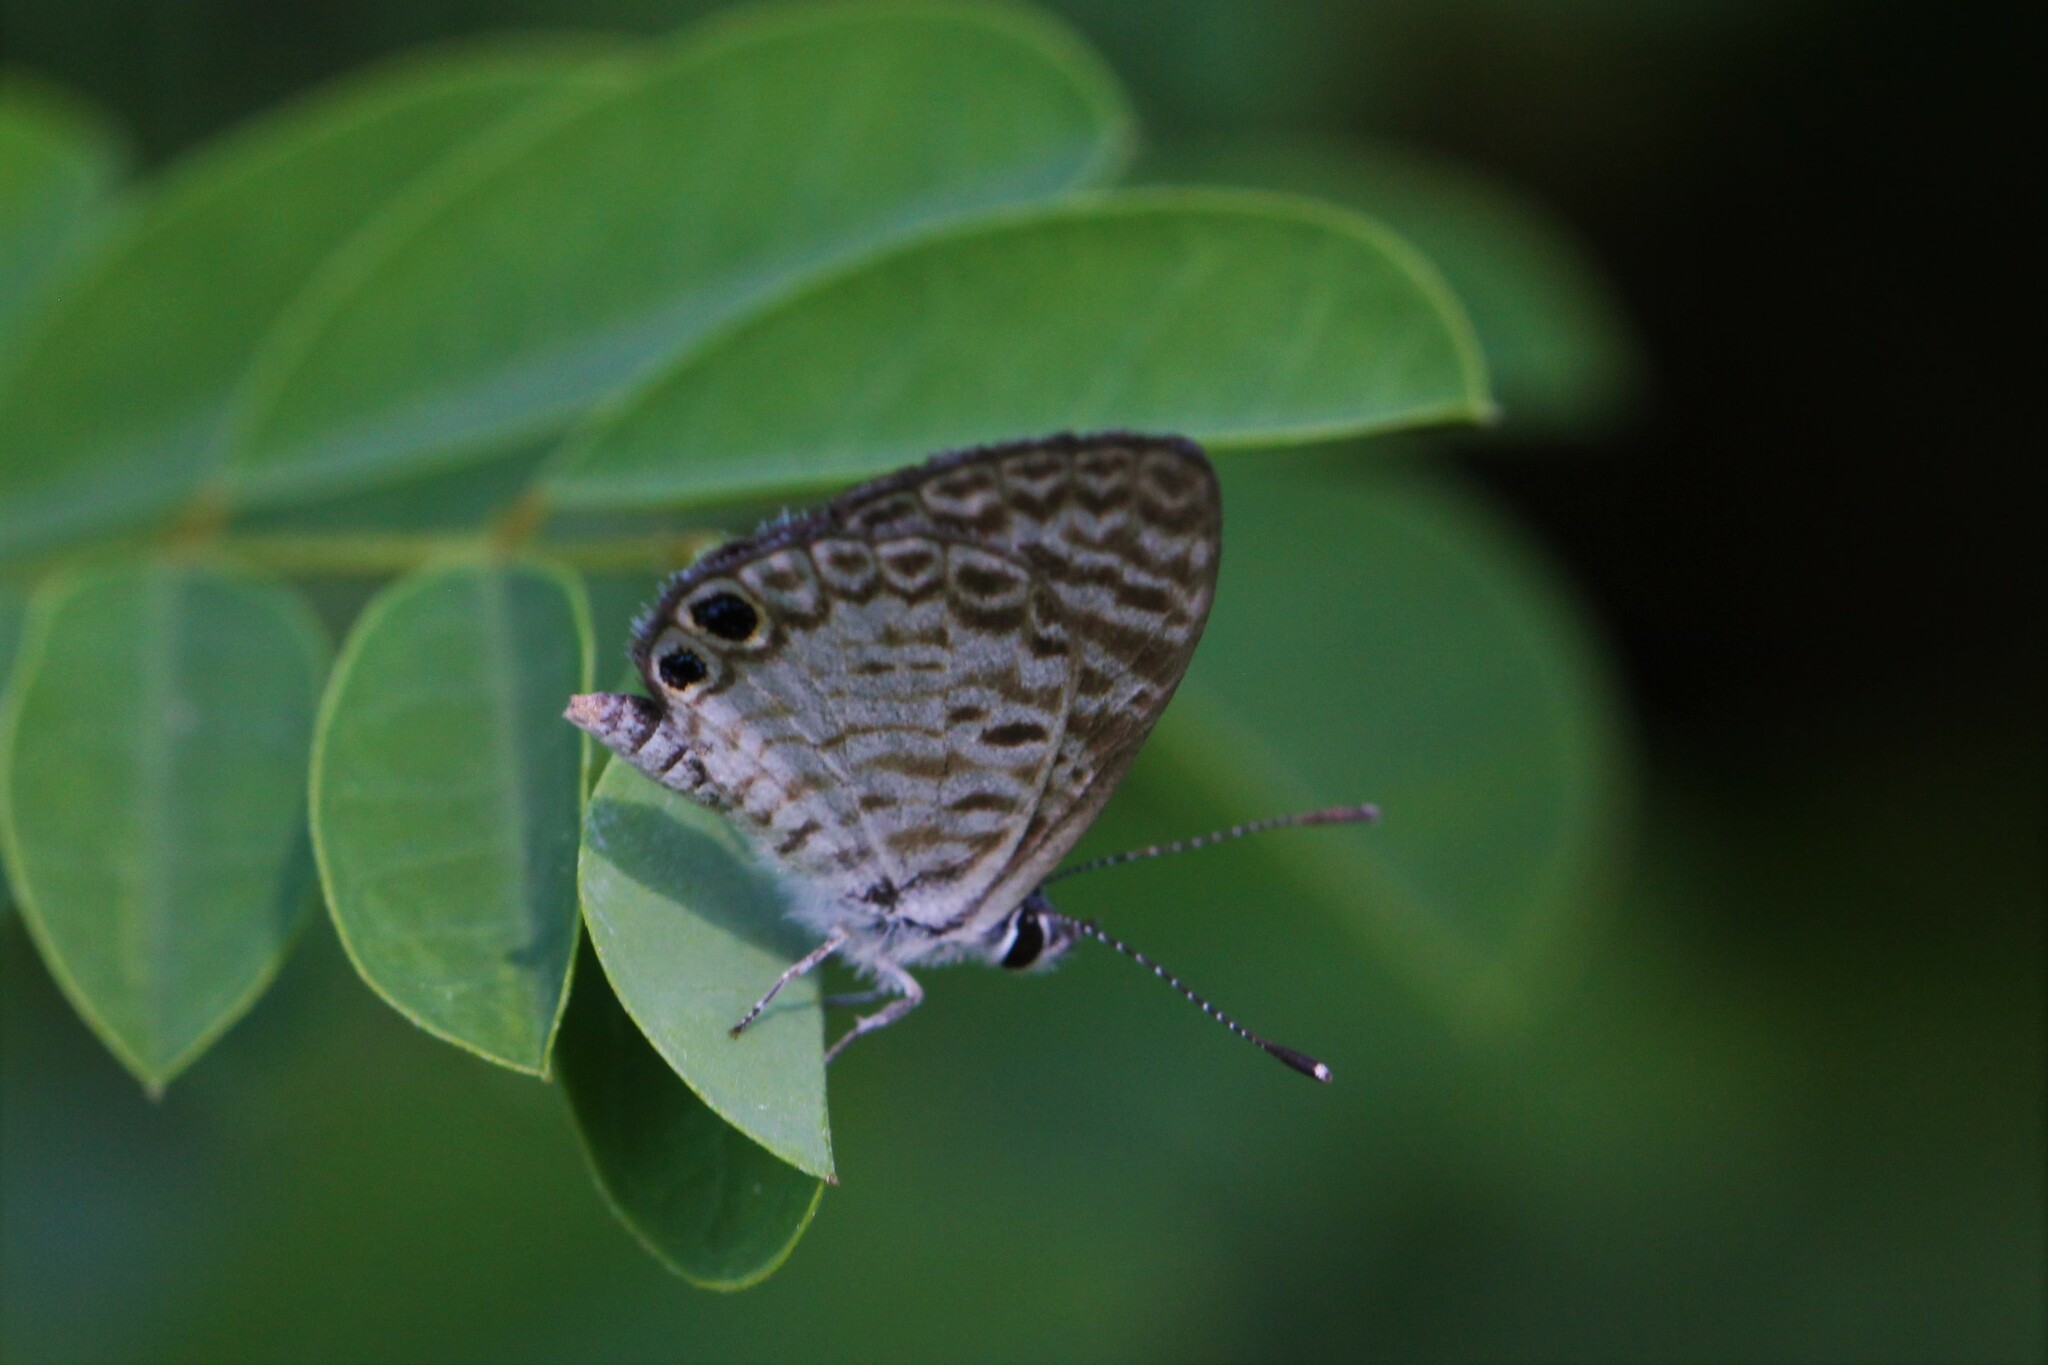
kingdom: Animalia
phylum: Arthropoda
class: Insecta
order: Lepidoptera
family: Lycaenidae
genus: Leptotes
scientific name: Leptotes cassius
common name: Cassius blue
